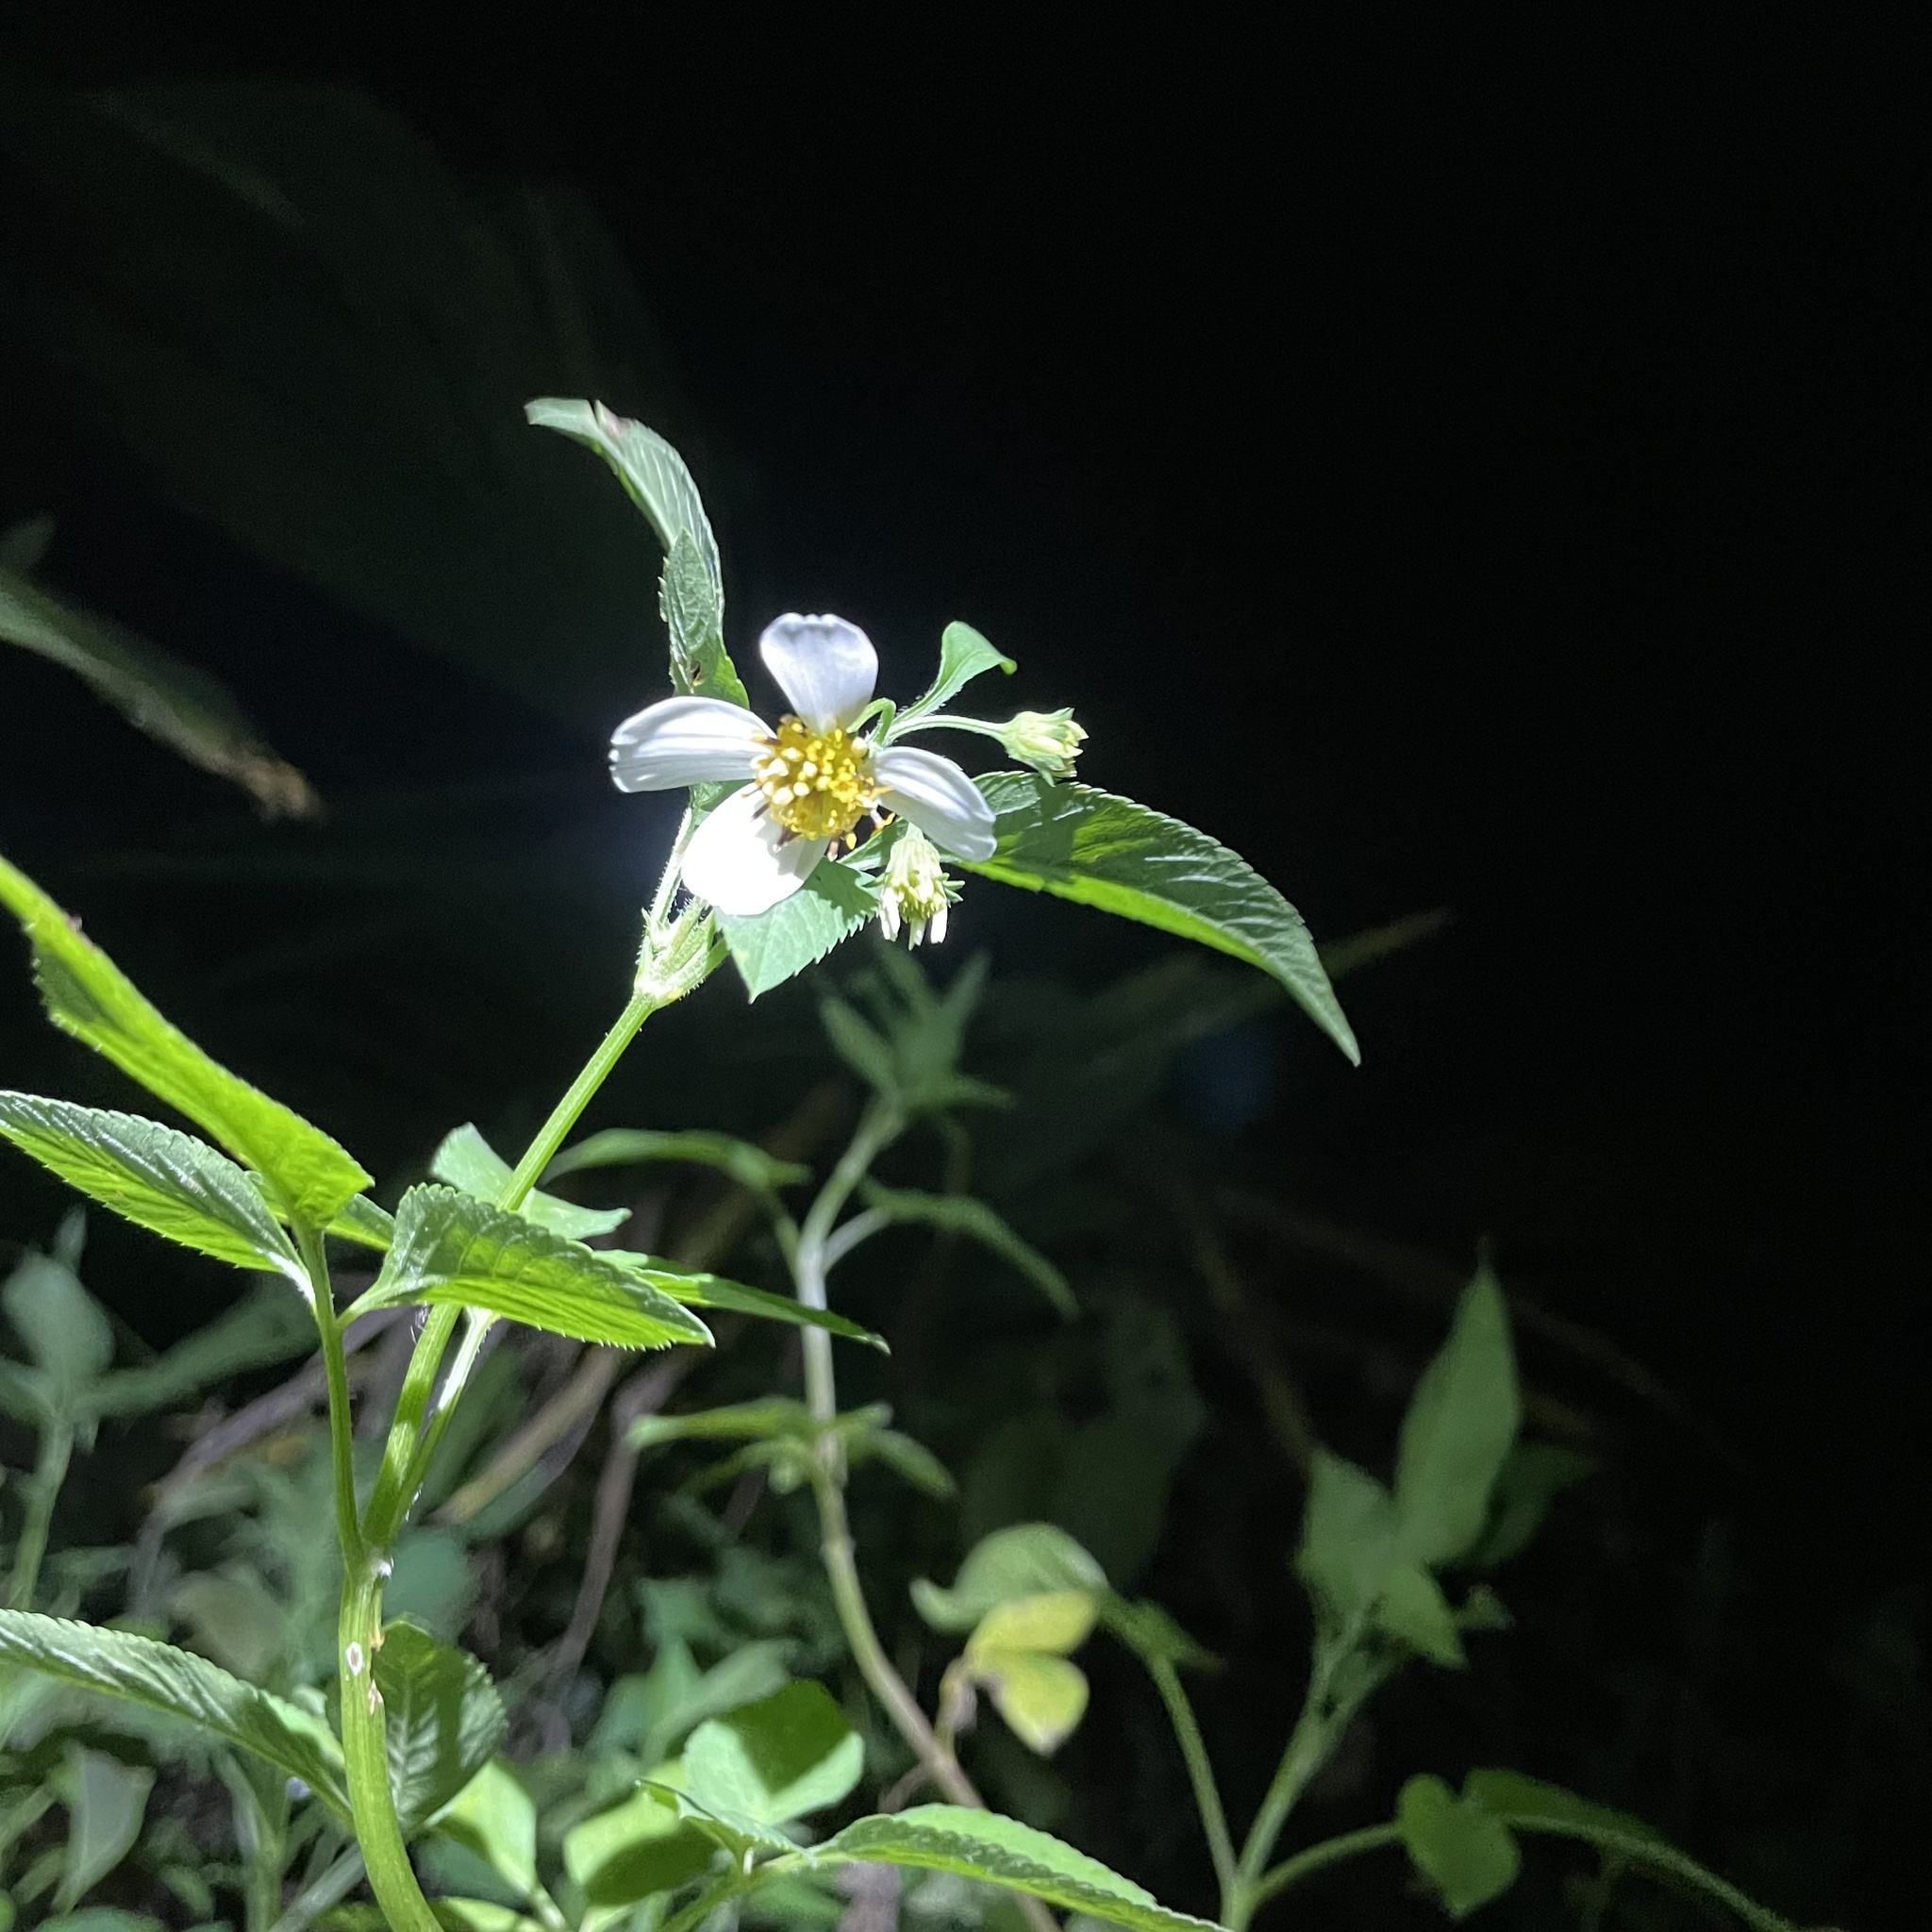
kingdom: Plantae
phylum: Tracheophyta
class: Magnoliopsida
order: Asterales
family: Asteraceae
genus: Bidens
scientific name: Bidens alba
